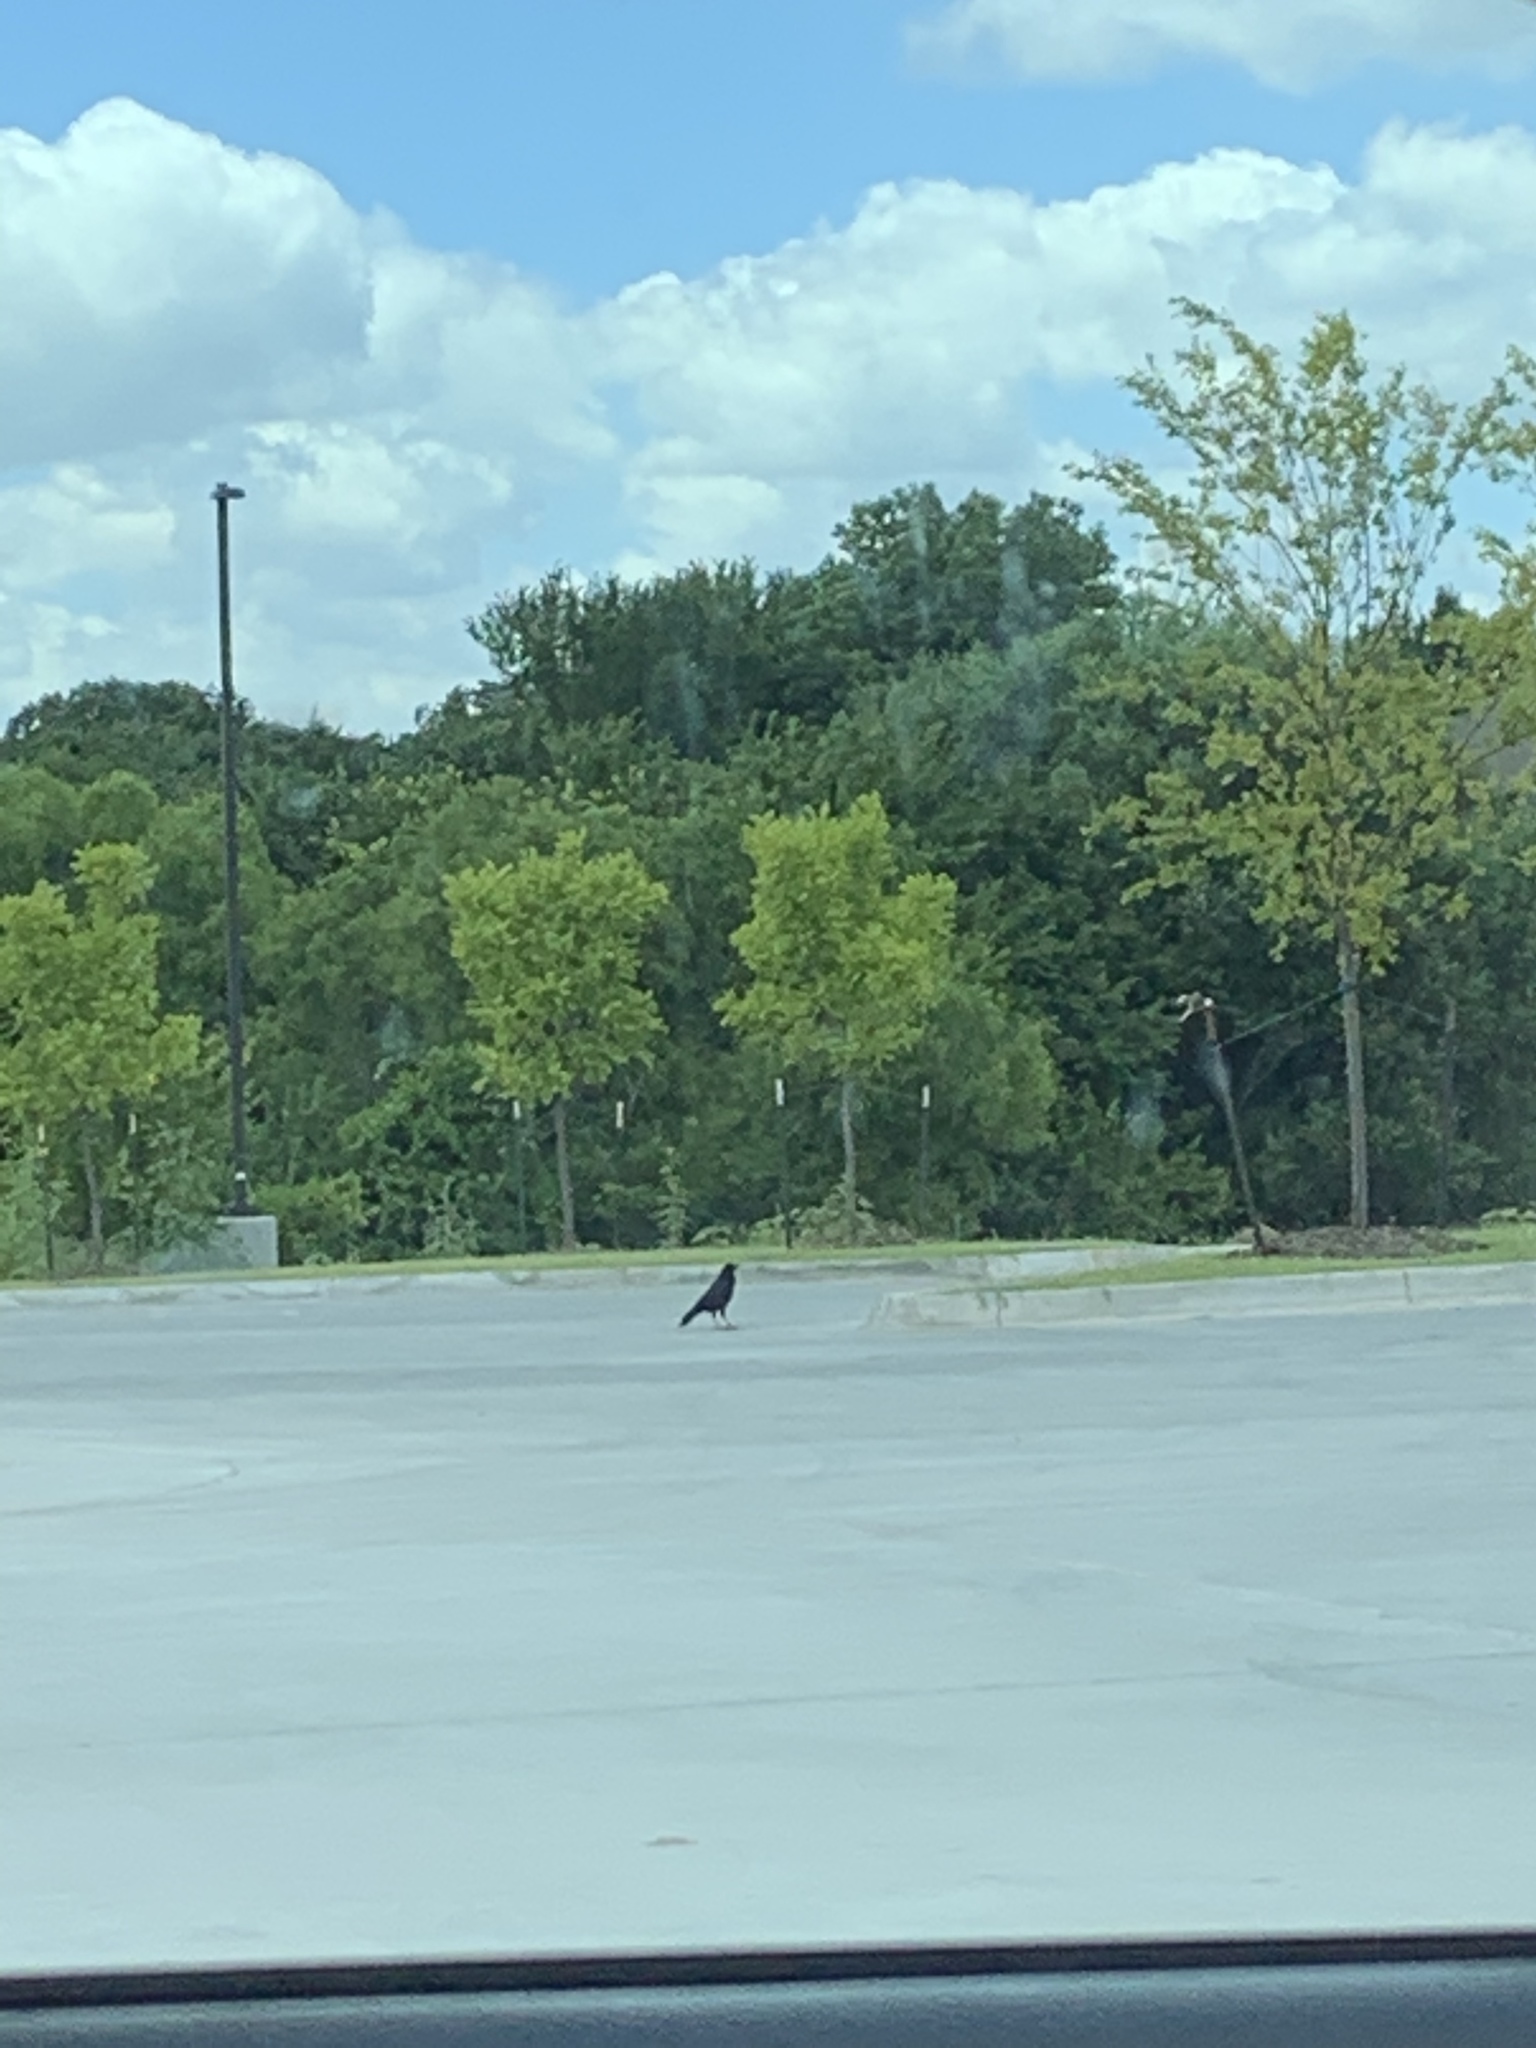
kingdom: Animalia
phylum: Chordata
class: Aves
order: Passeriformes
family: Corvidae
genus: Corvus
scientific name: Corvus brachyrhynchos
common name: American crow
